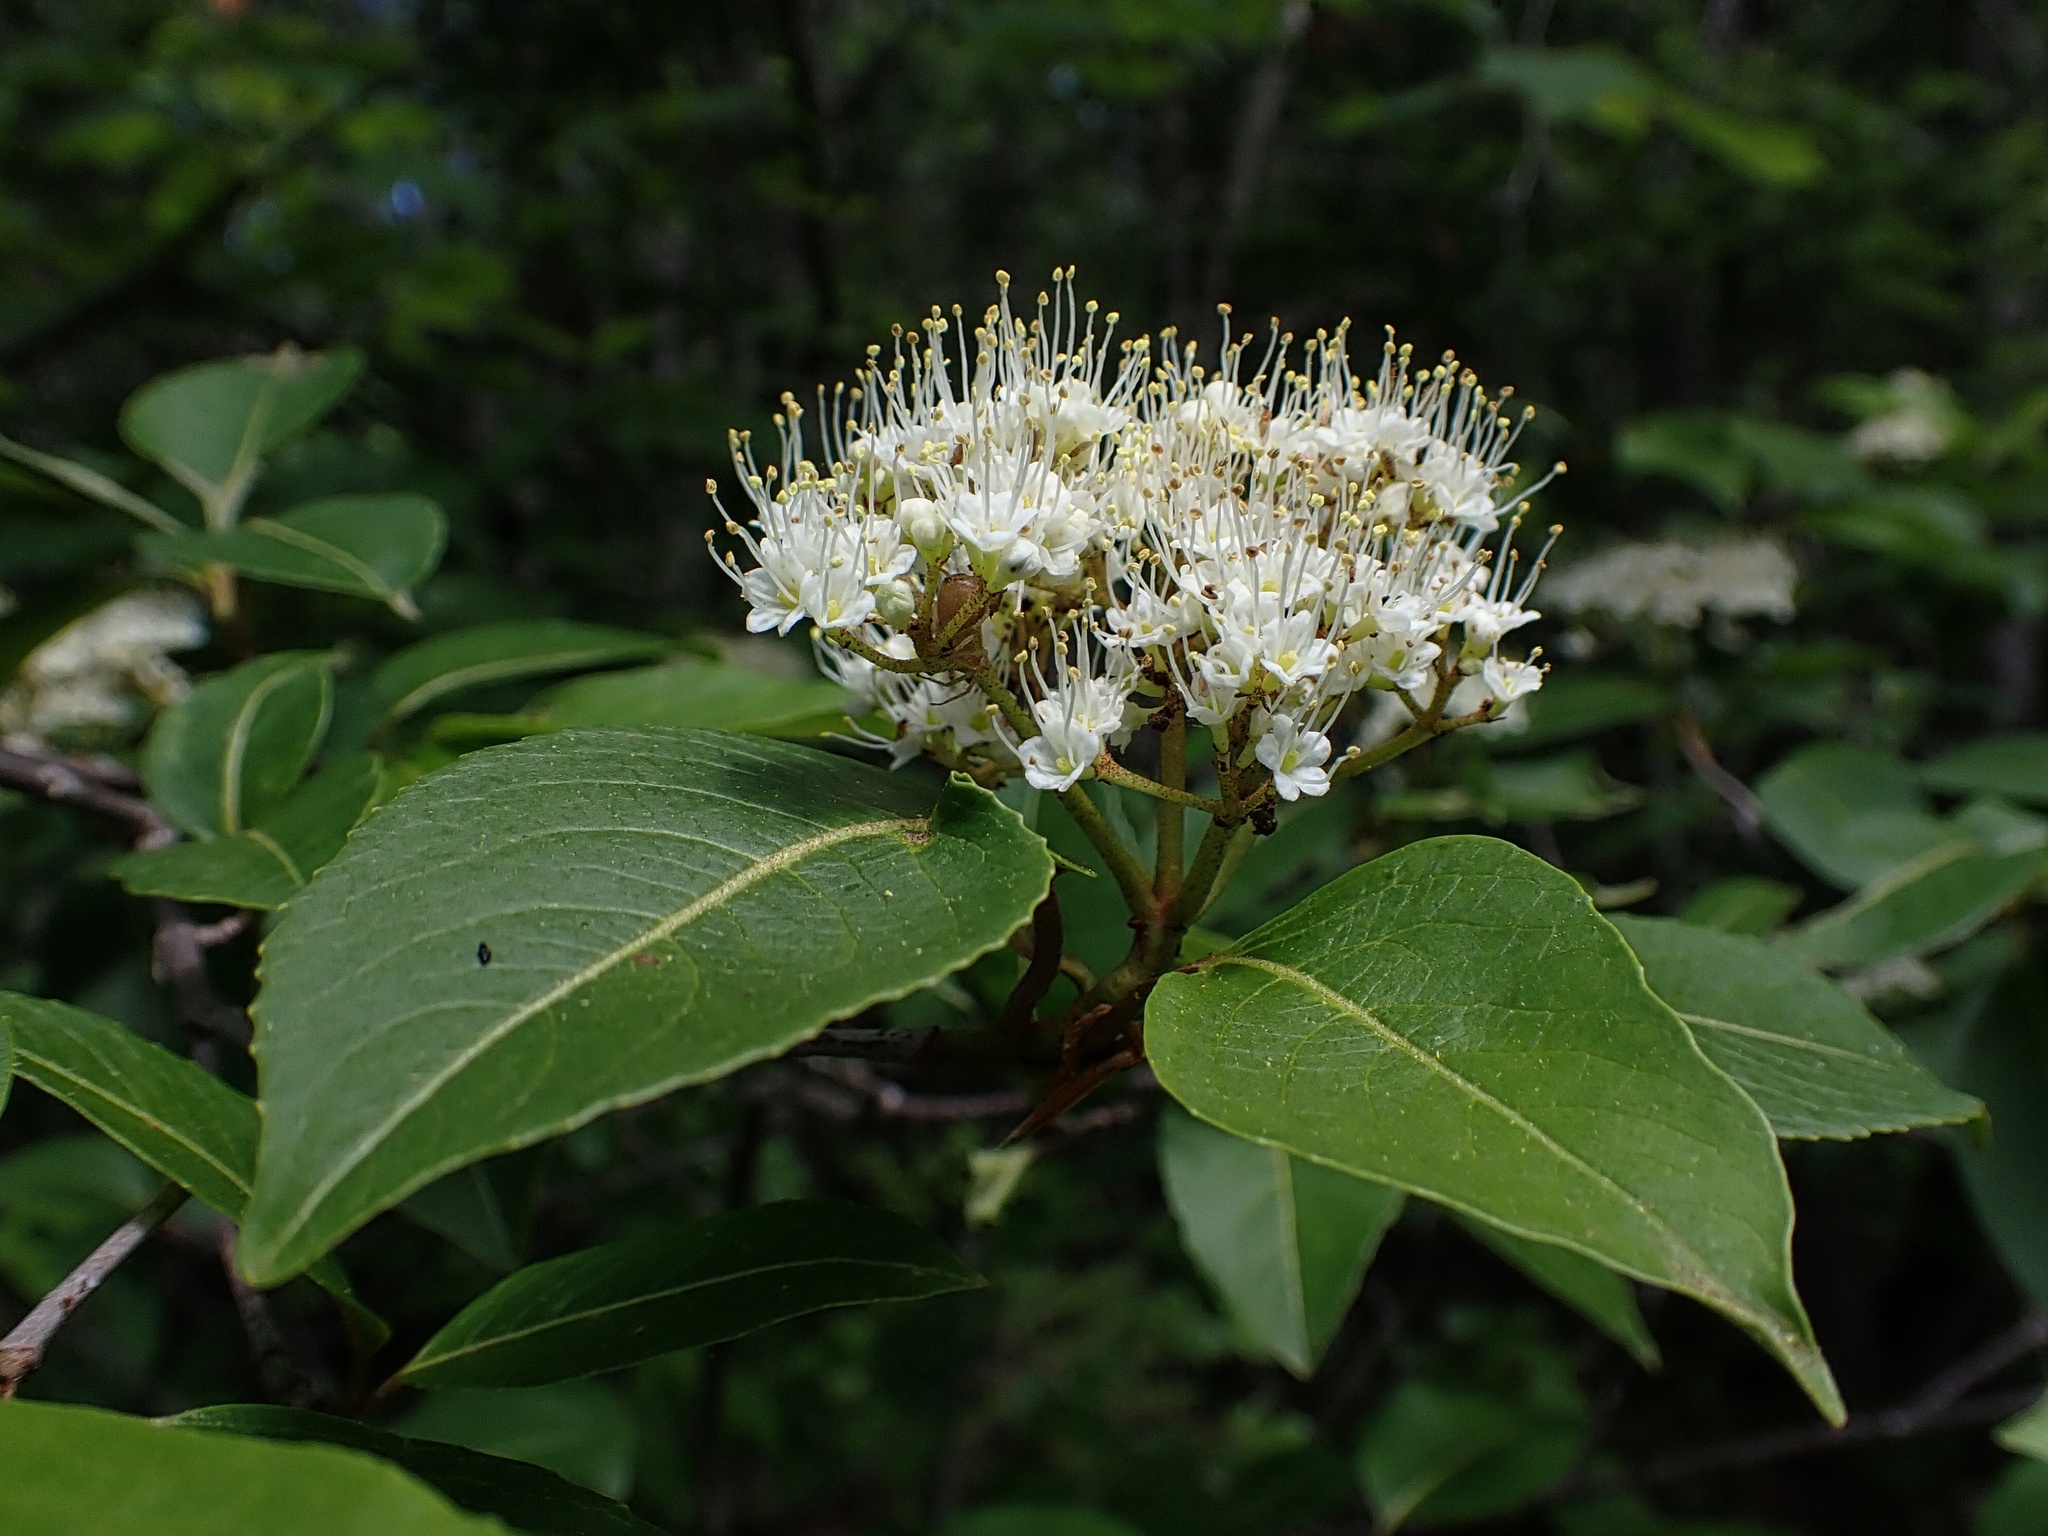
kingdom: Plantae
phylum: Tracheophyta
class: Magnoliopsida
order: Dipsacales
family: Viburnaceae
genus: Viburnum
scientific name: Viburnum cassinoides
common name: Swamp haw
